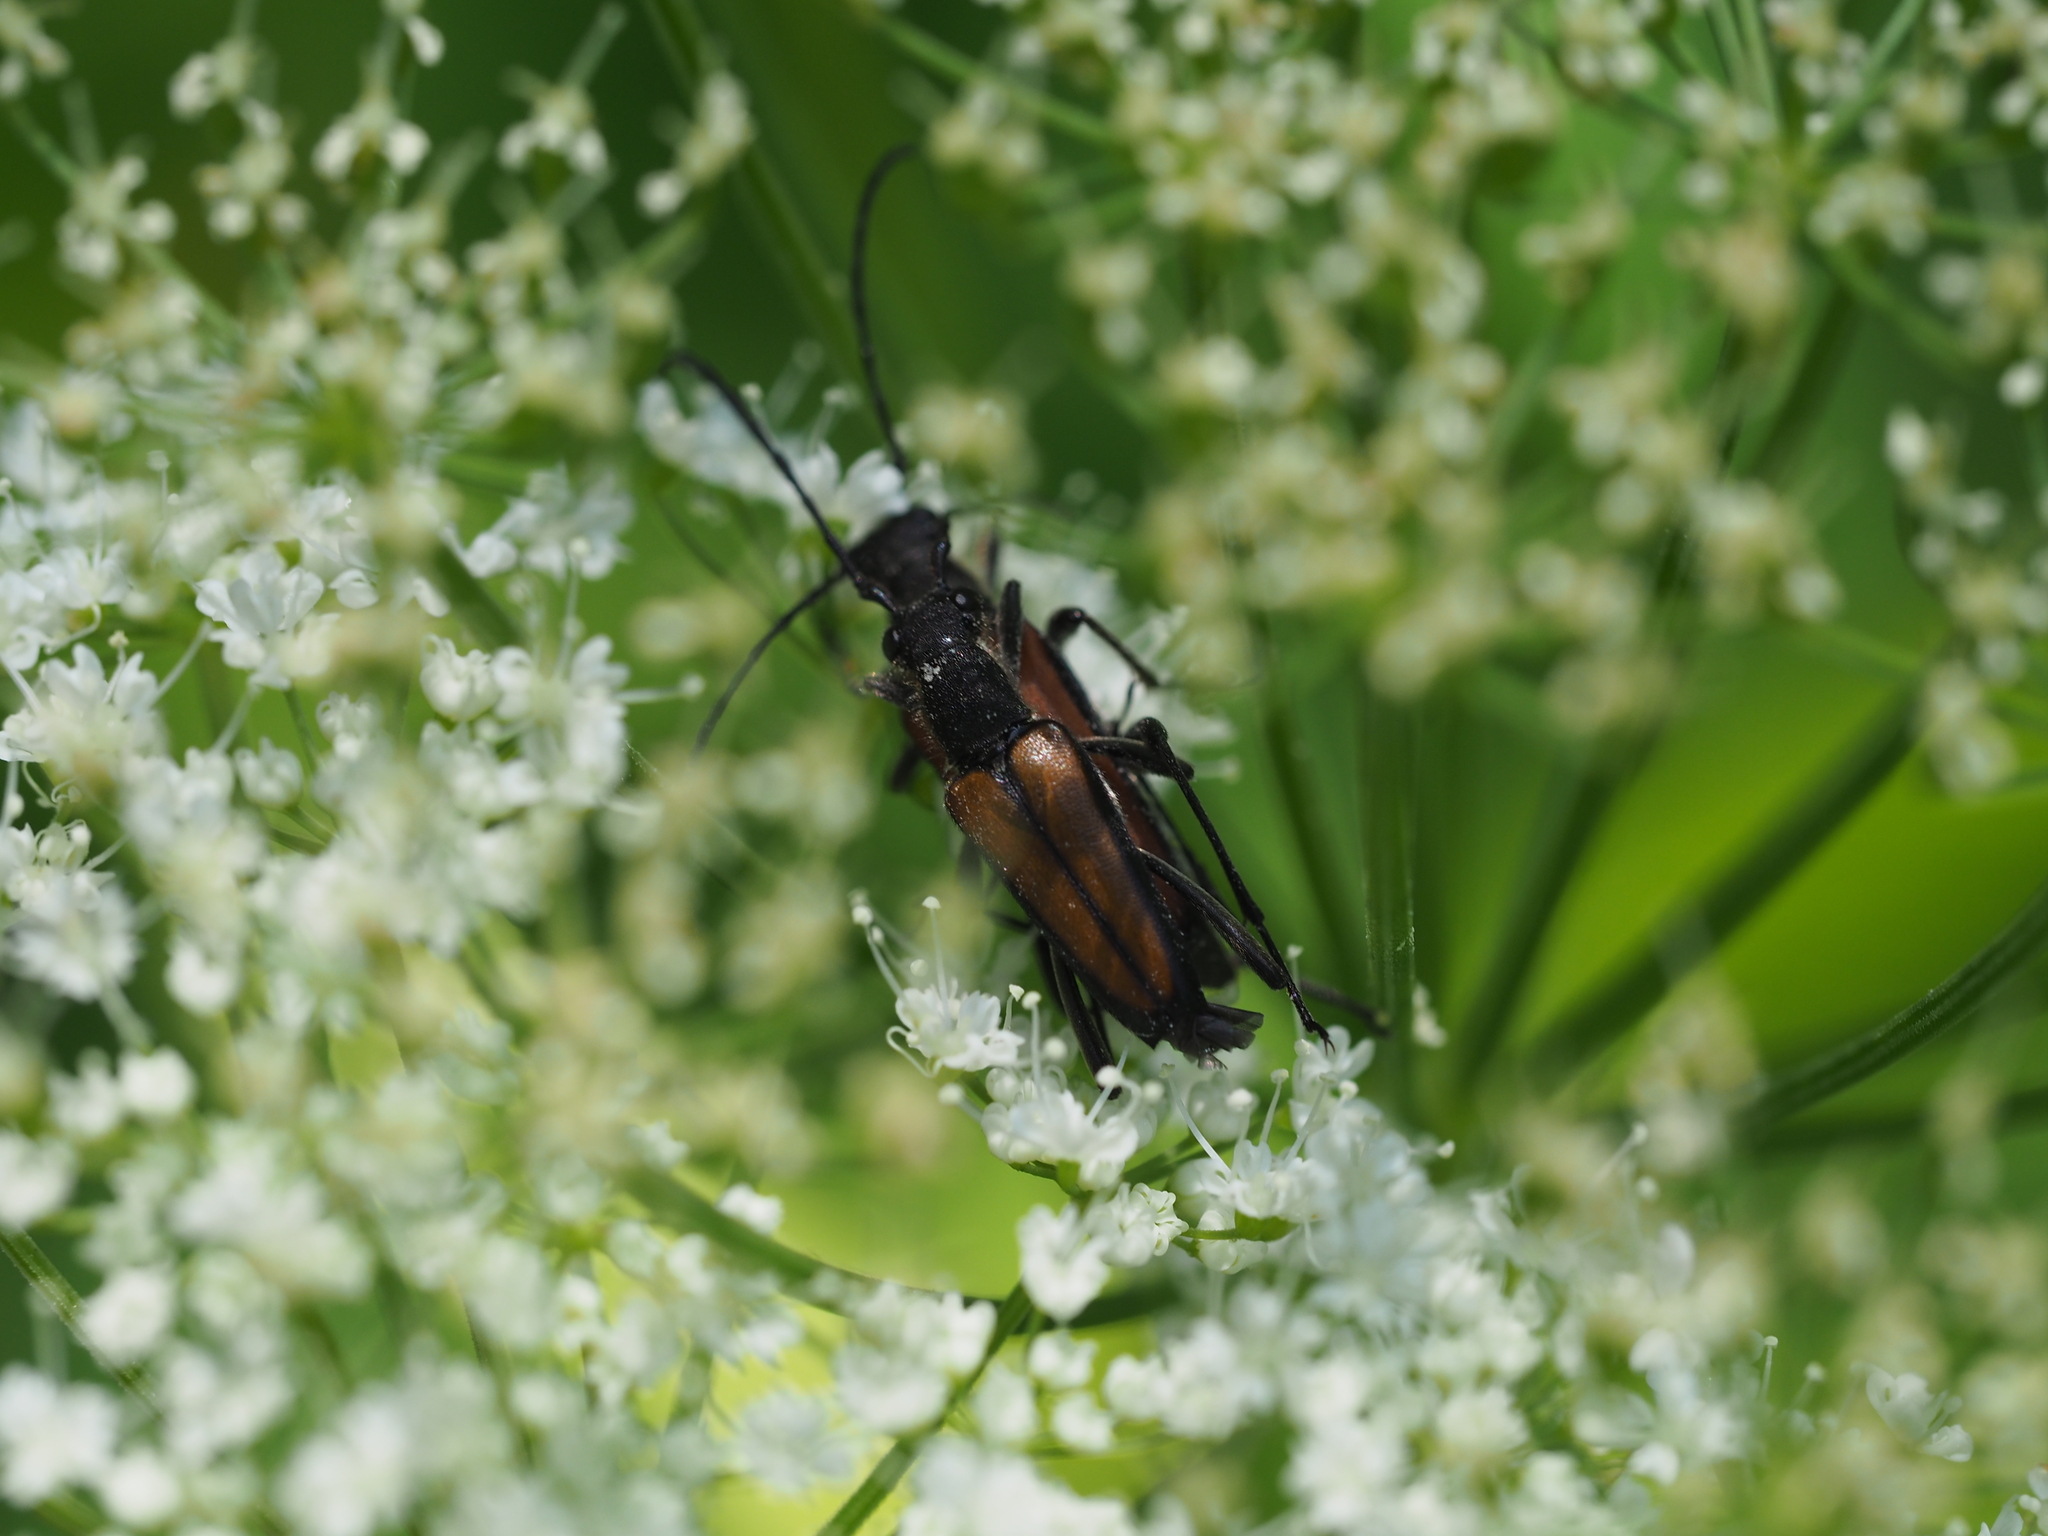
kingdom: Animalia
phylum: Arthropoda
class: Insecta
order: Coleoptera
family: Cerambycidae
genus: Anastrangalia
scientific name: Anastrangalia dubia
